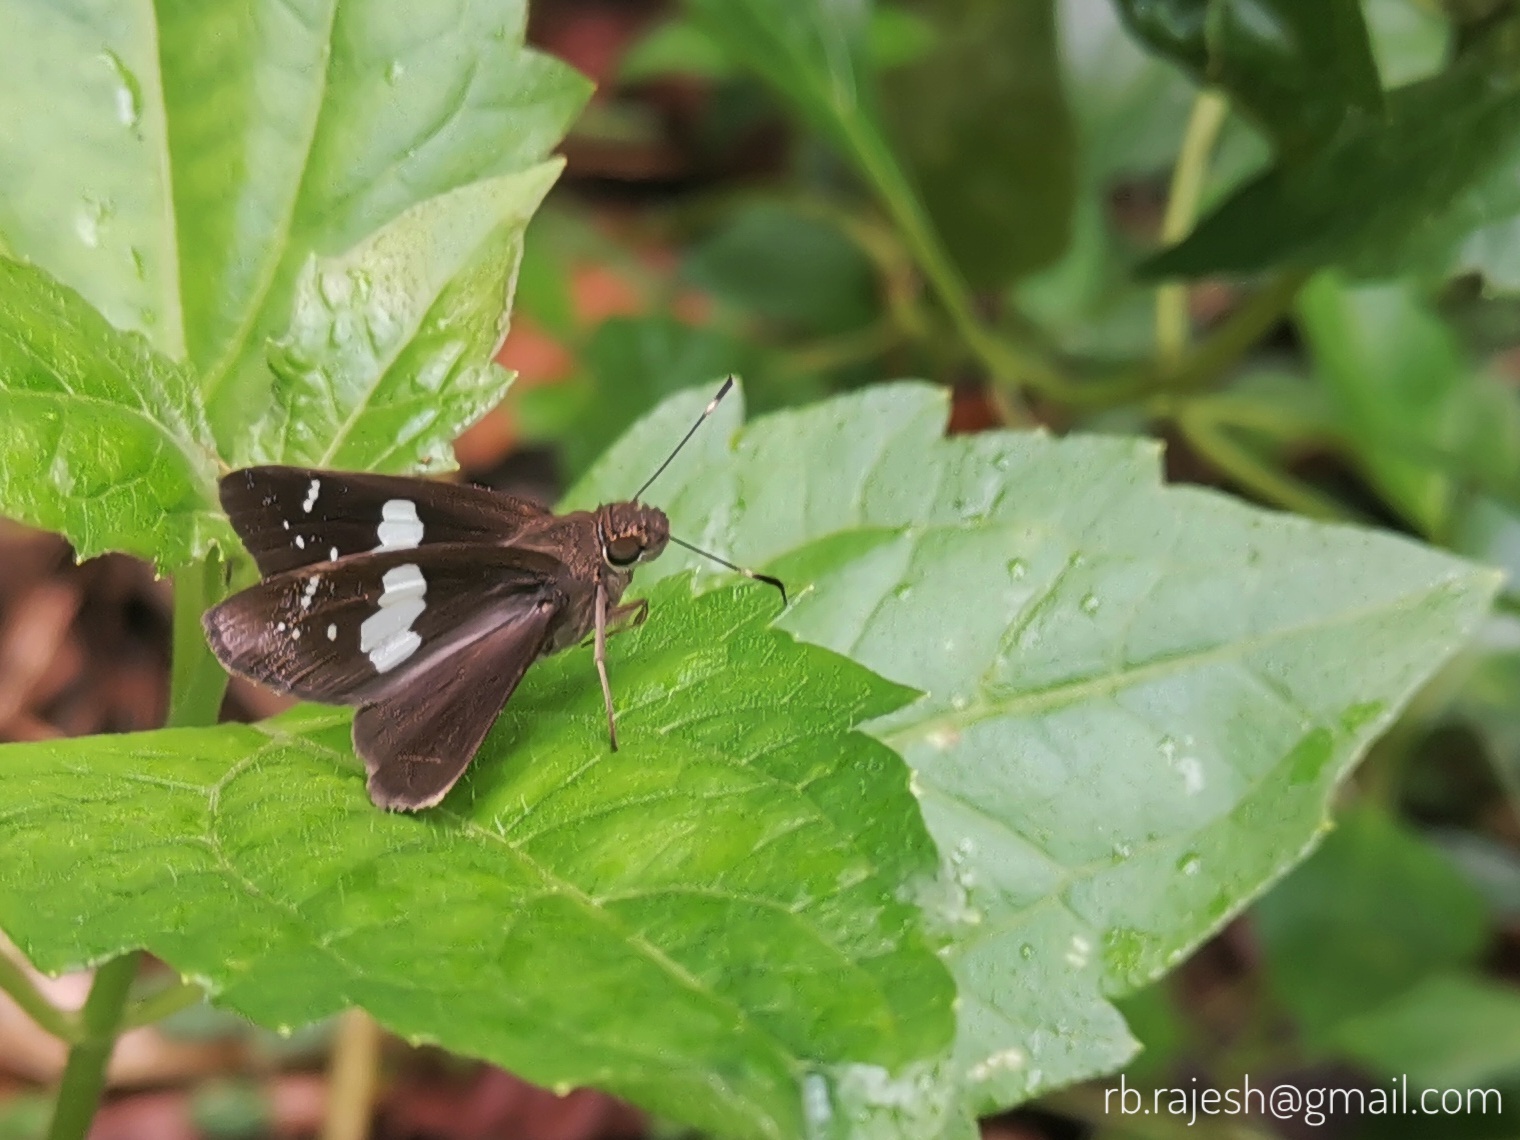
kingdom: Animalia
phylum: Arthropoda
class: Insecta
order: Lepidoptera
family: Hesperiidae
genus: Notocrypta
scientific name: Notocrypta curvifascia
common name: Restricted demon
